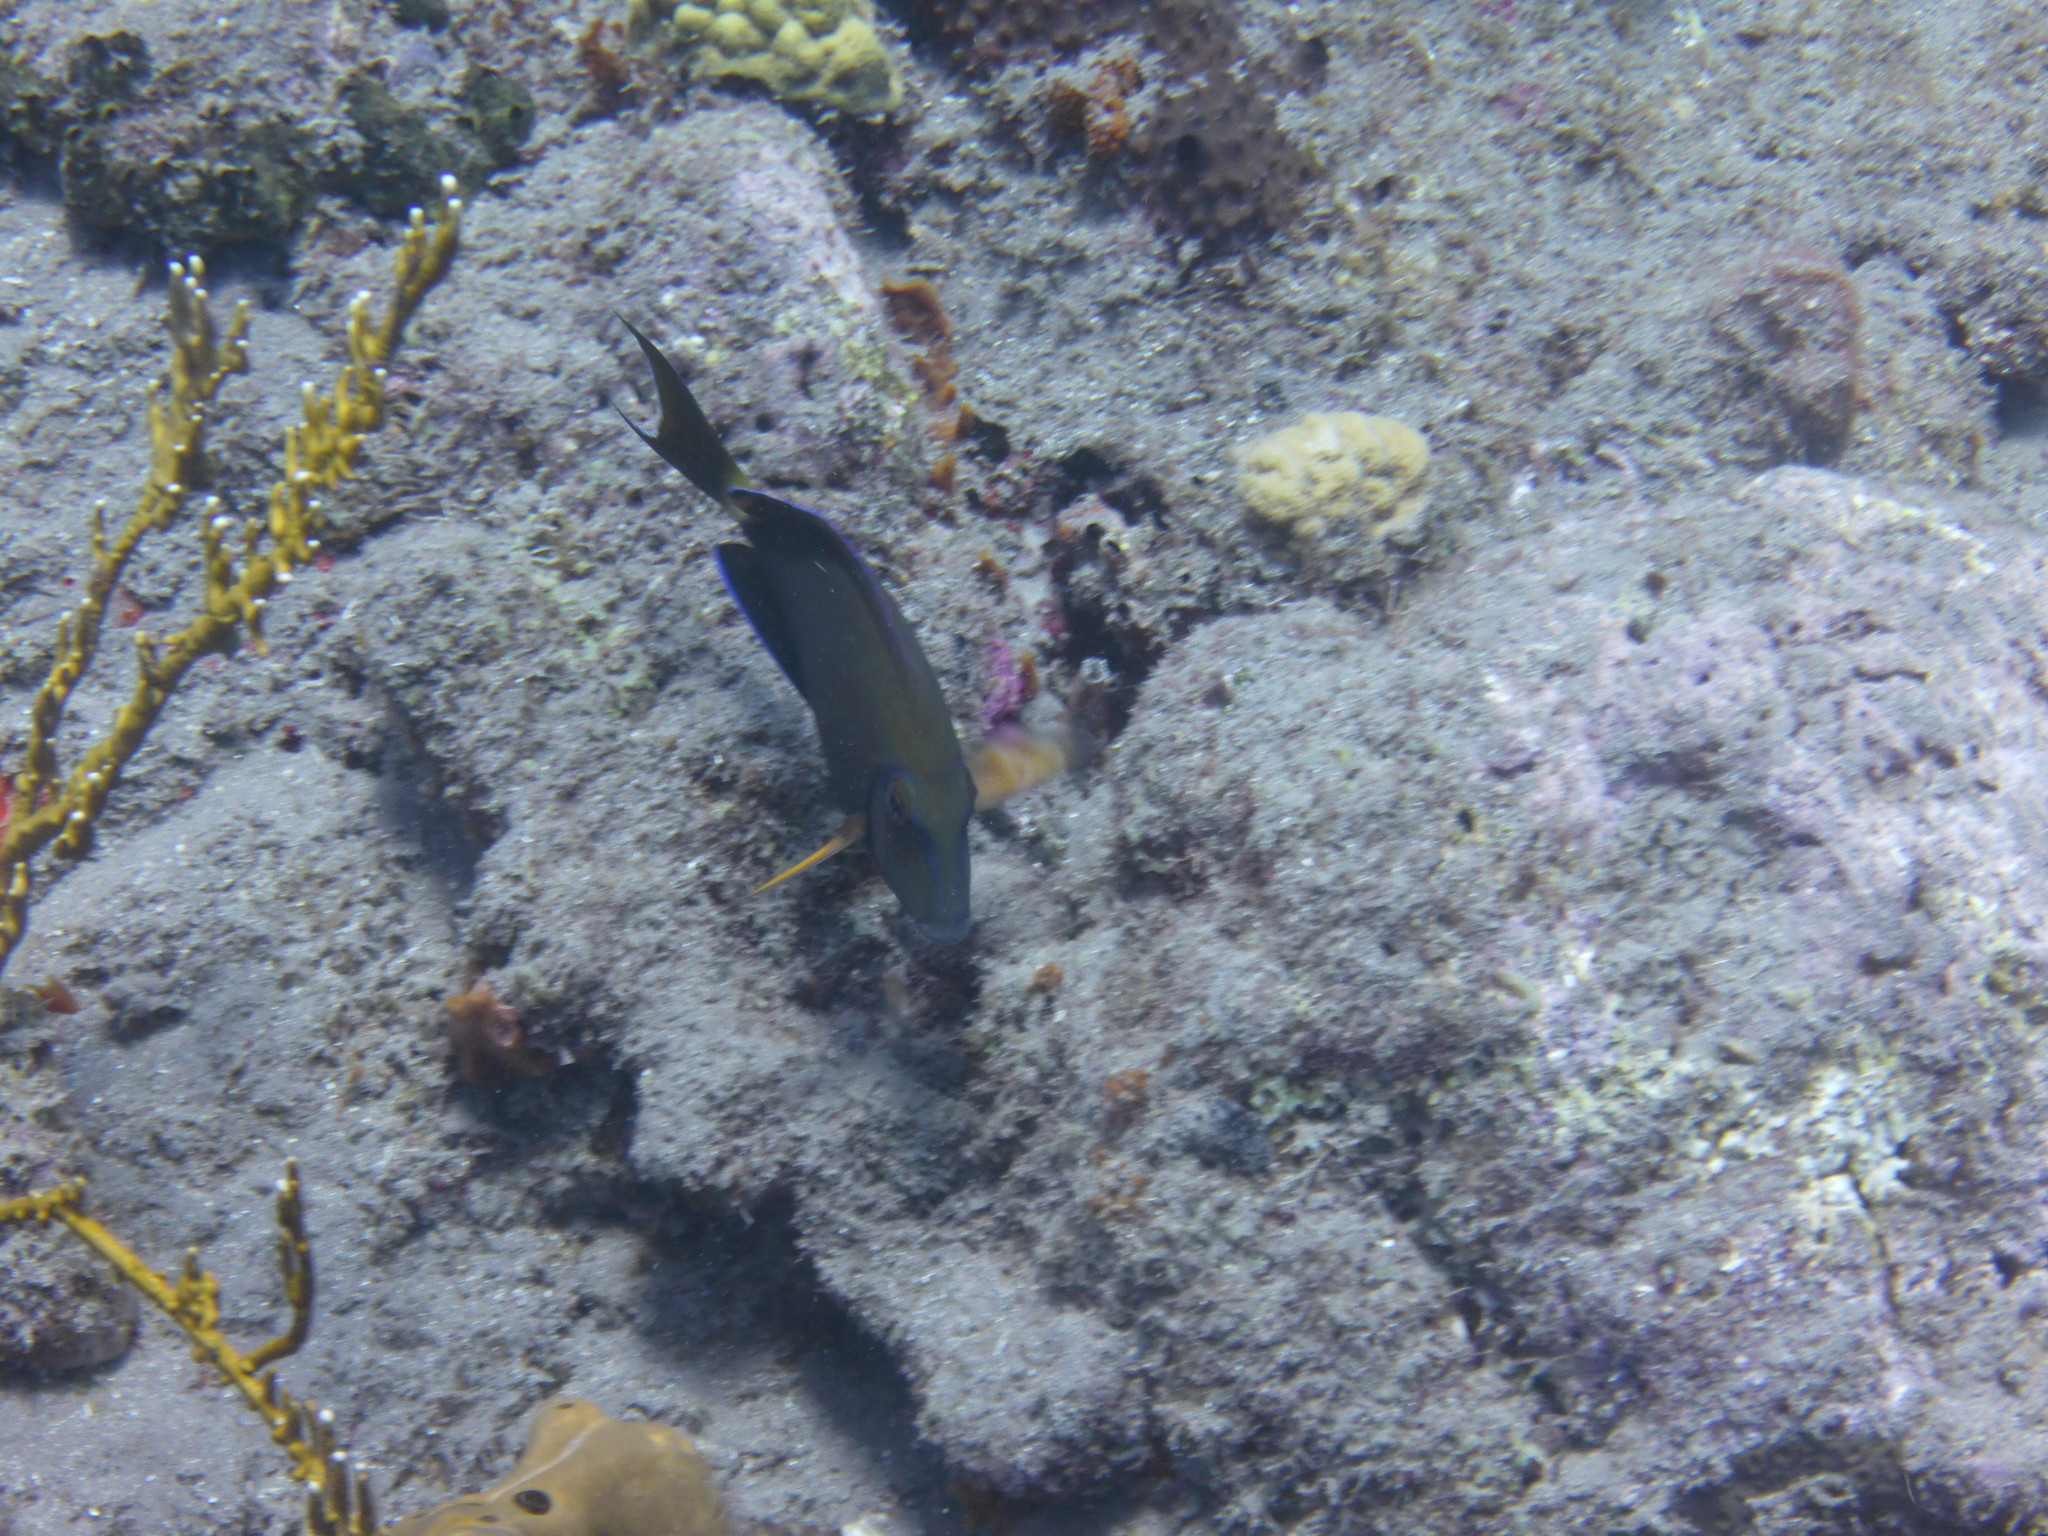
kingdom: Animalia
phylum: Chordata
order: Perciformes
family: Acanthuridae
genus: Acanthurus
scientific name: Acanthurus bahianus
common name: Ocean surgeon
